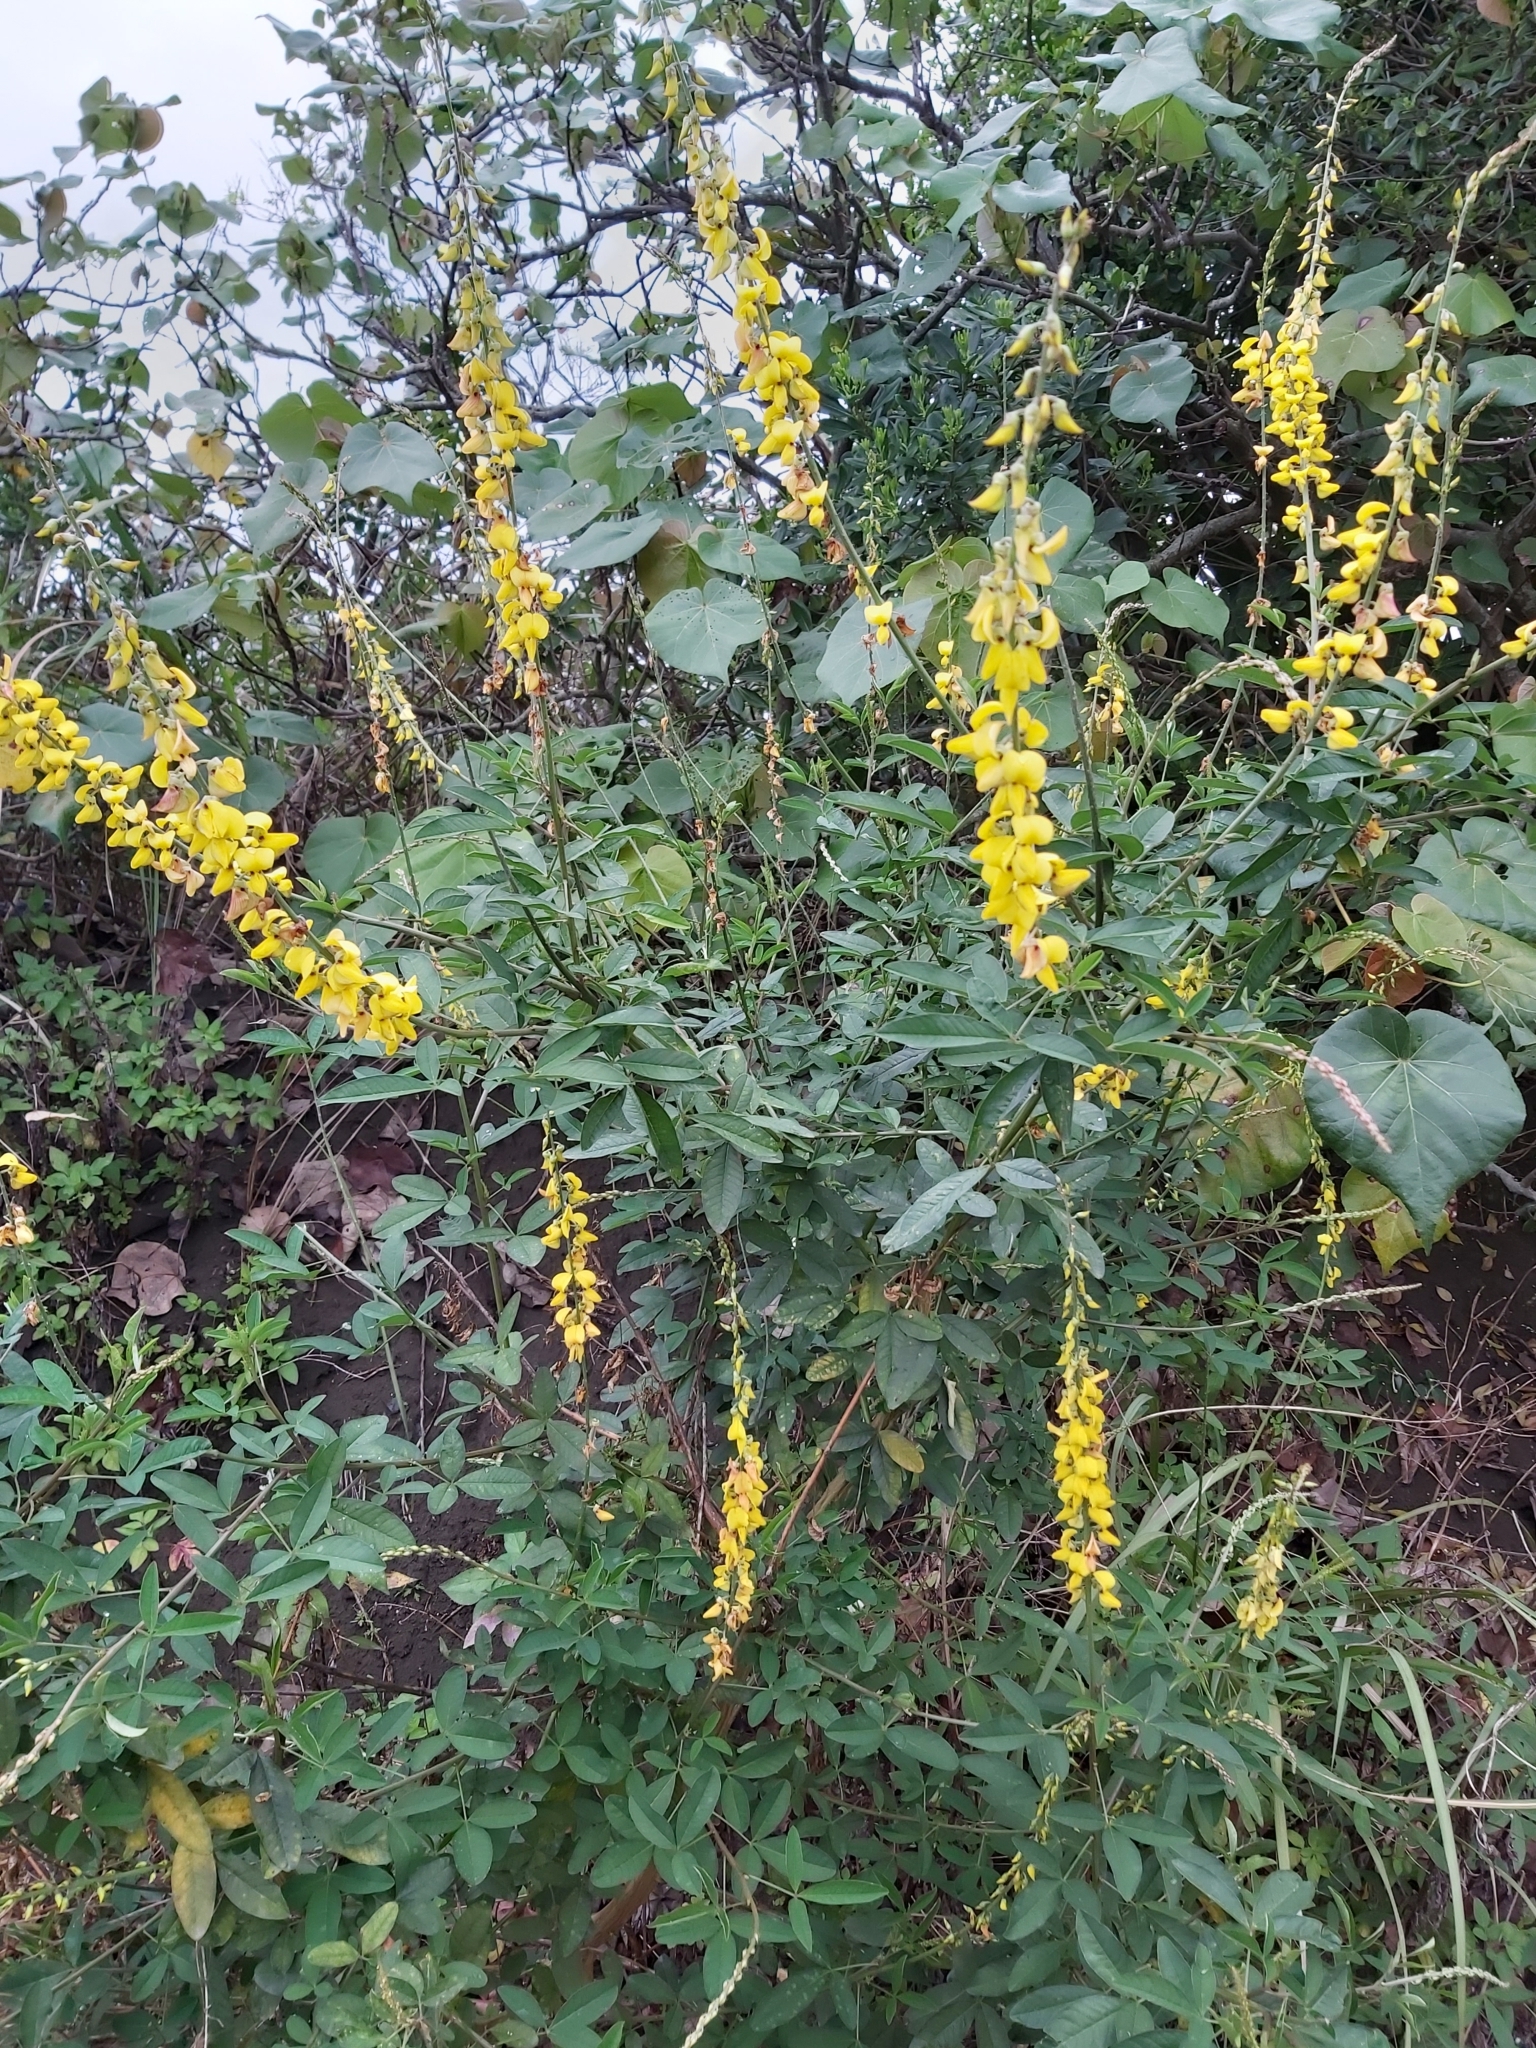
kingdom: Plantae
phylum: Tracheophyta
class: Magnoliopsida
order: Fabales
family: Fabaceae
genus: Crotalaria
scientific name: Crotalaria trichotoma
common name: West indian rattlebox
